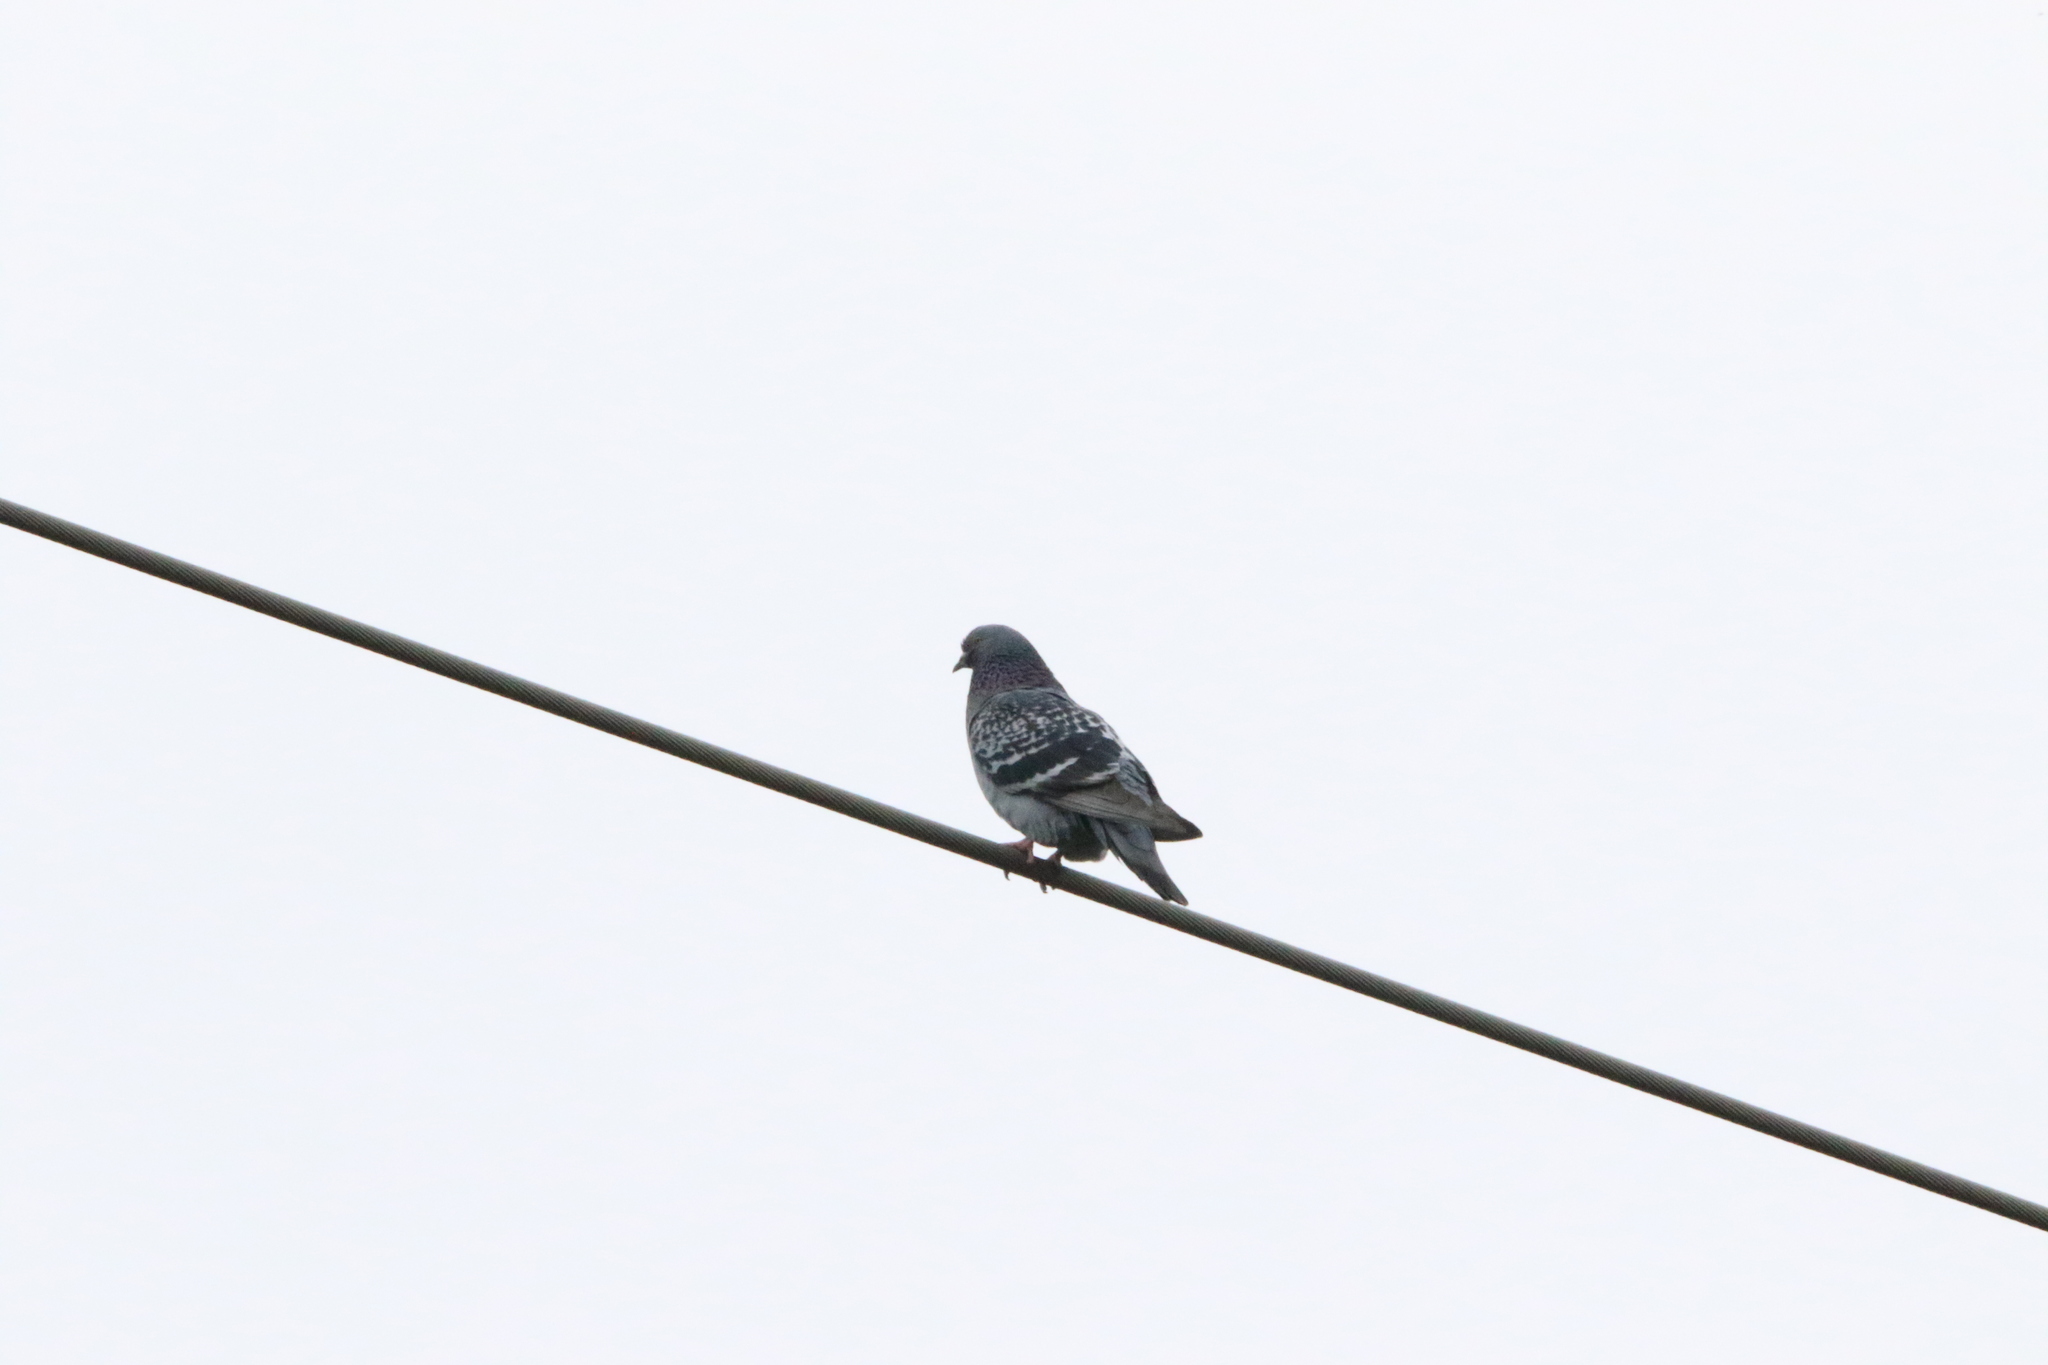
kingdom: Animalia
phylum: Chordata
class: Aves
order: Columbiformes
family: Columbidae
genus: Columba
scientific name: Columba livia
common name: Rock pigeon
